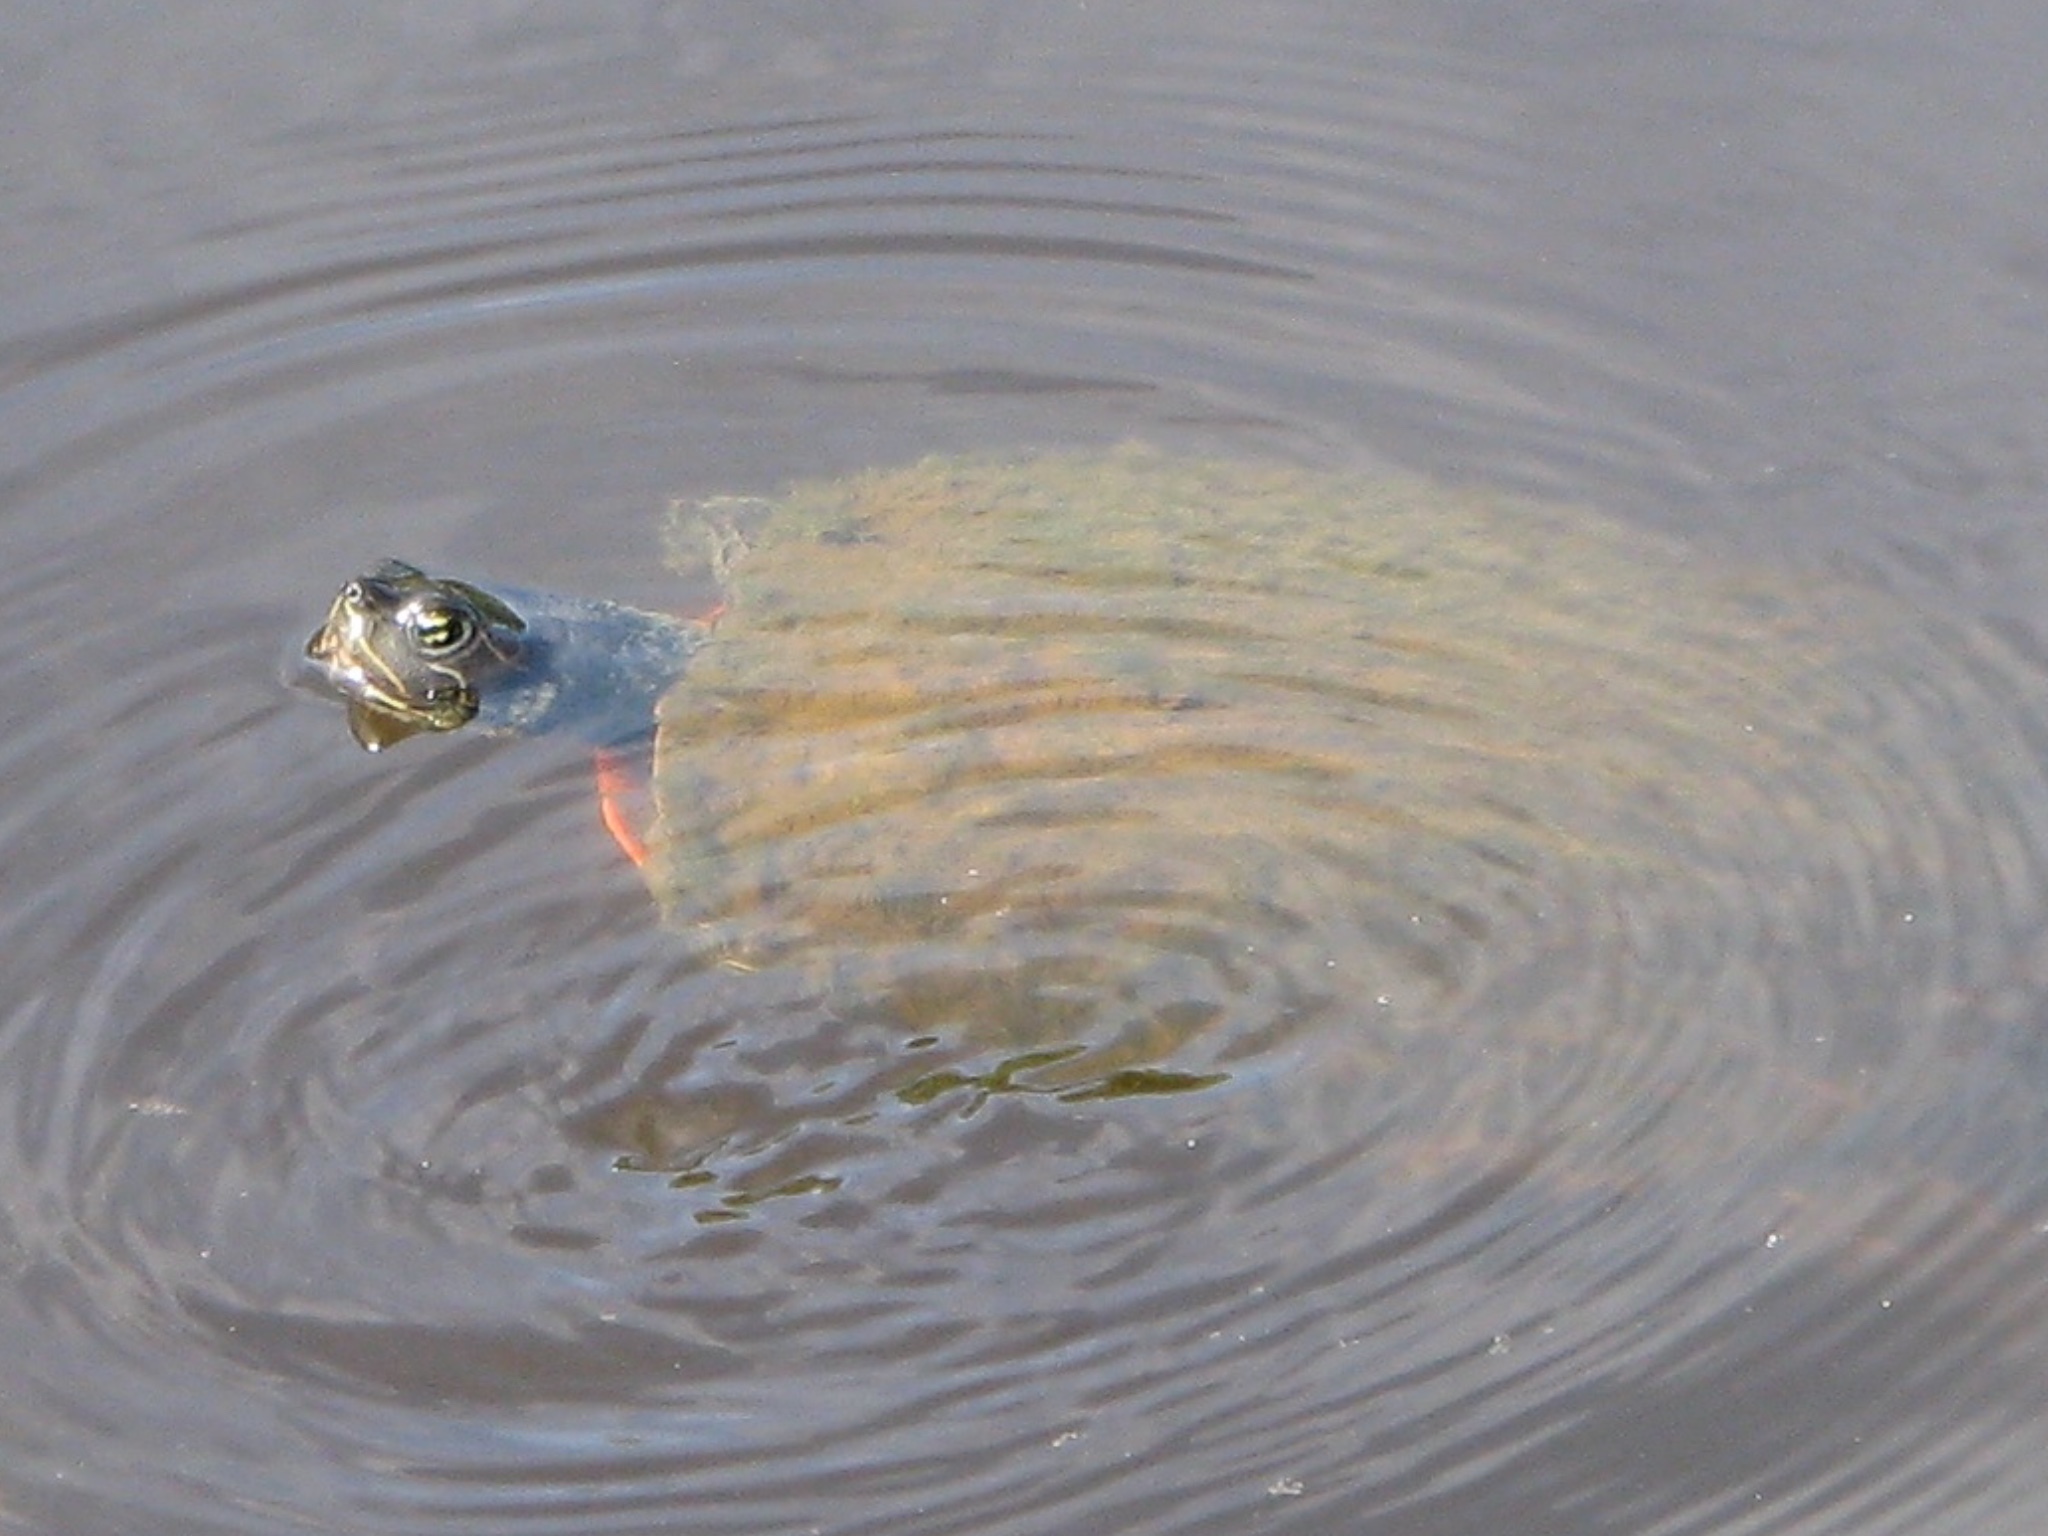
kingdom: Animalia
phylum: Chordata
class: Testudines
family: Emydidae
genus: Pseudemys
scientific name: Pseudemys rubriventris
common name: American red-bellied turtle
